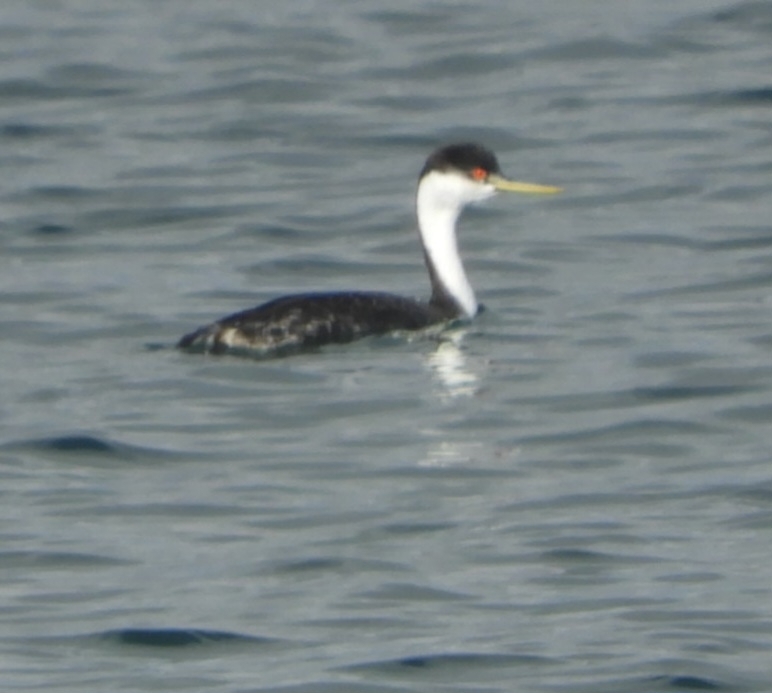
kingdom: Animalia
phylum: Chordata
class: Aves
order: Podicipediformes
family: Podicipedidae
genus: Aechmophorus
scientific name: Aechmophorus occidentalis
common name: Western grebe
